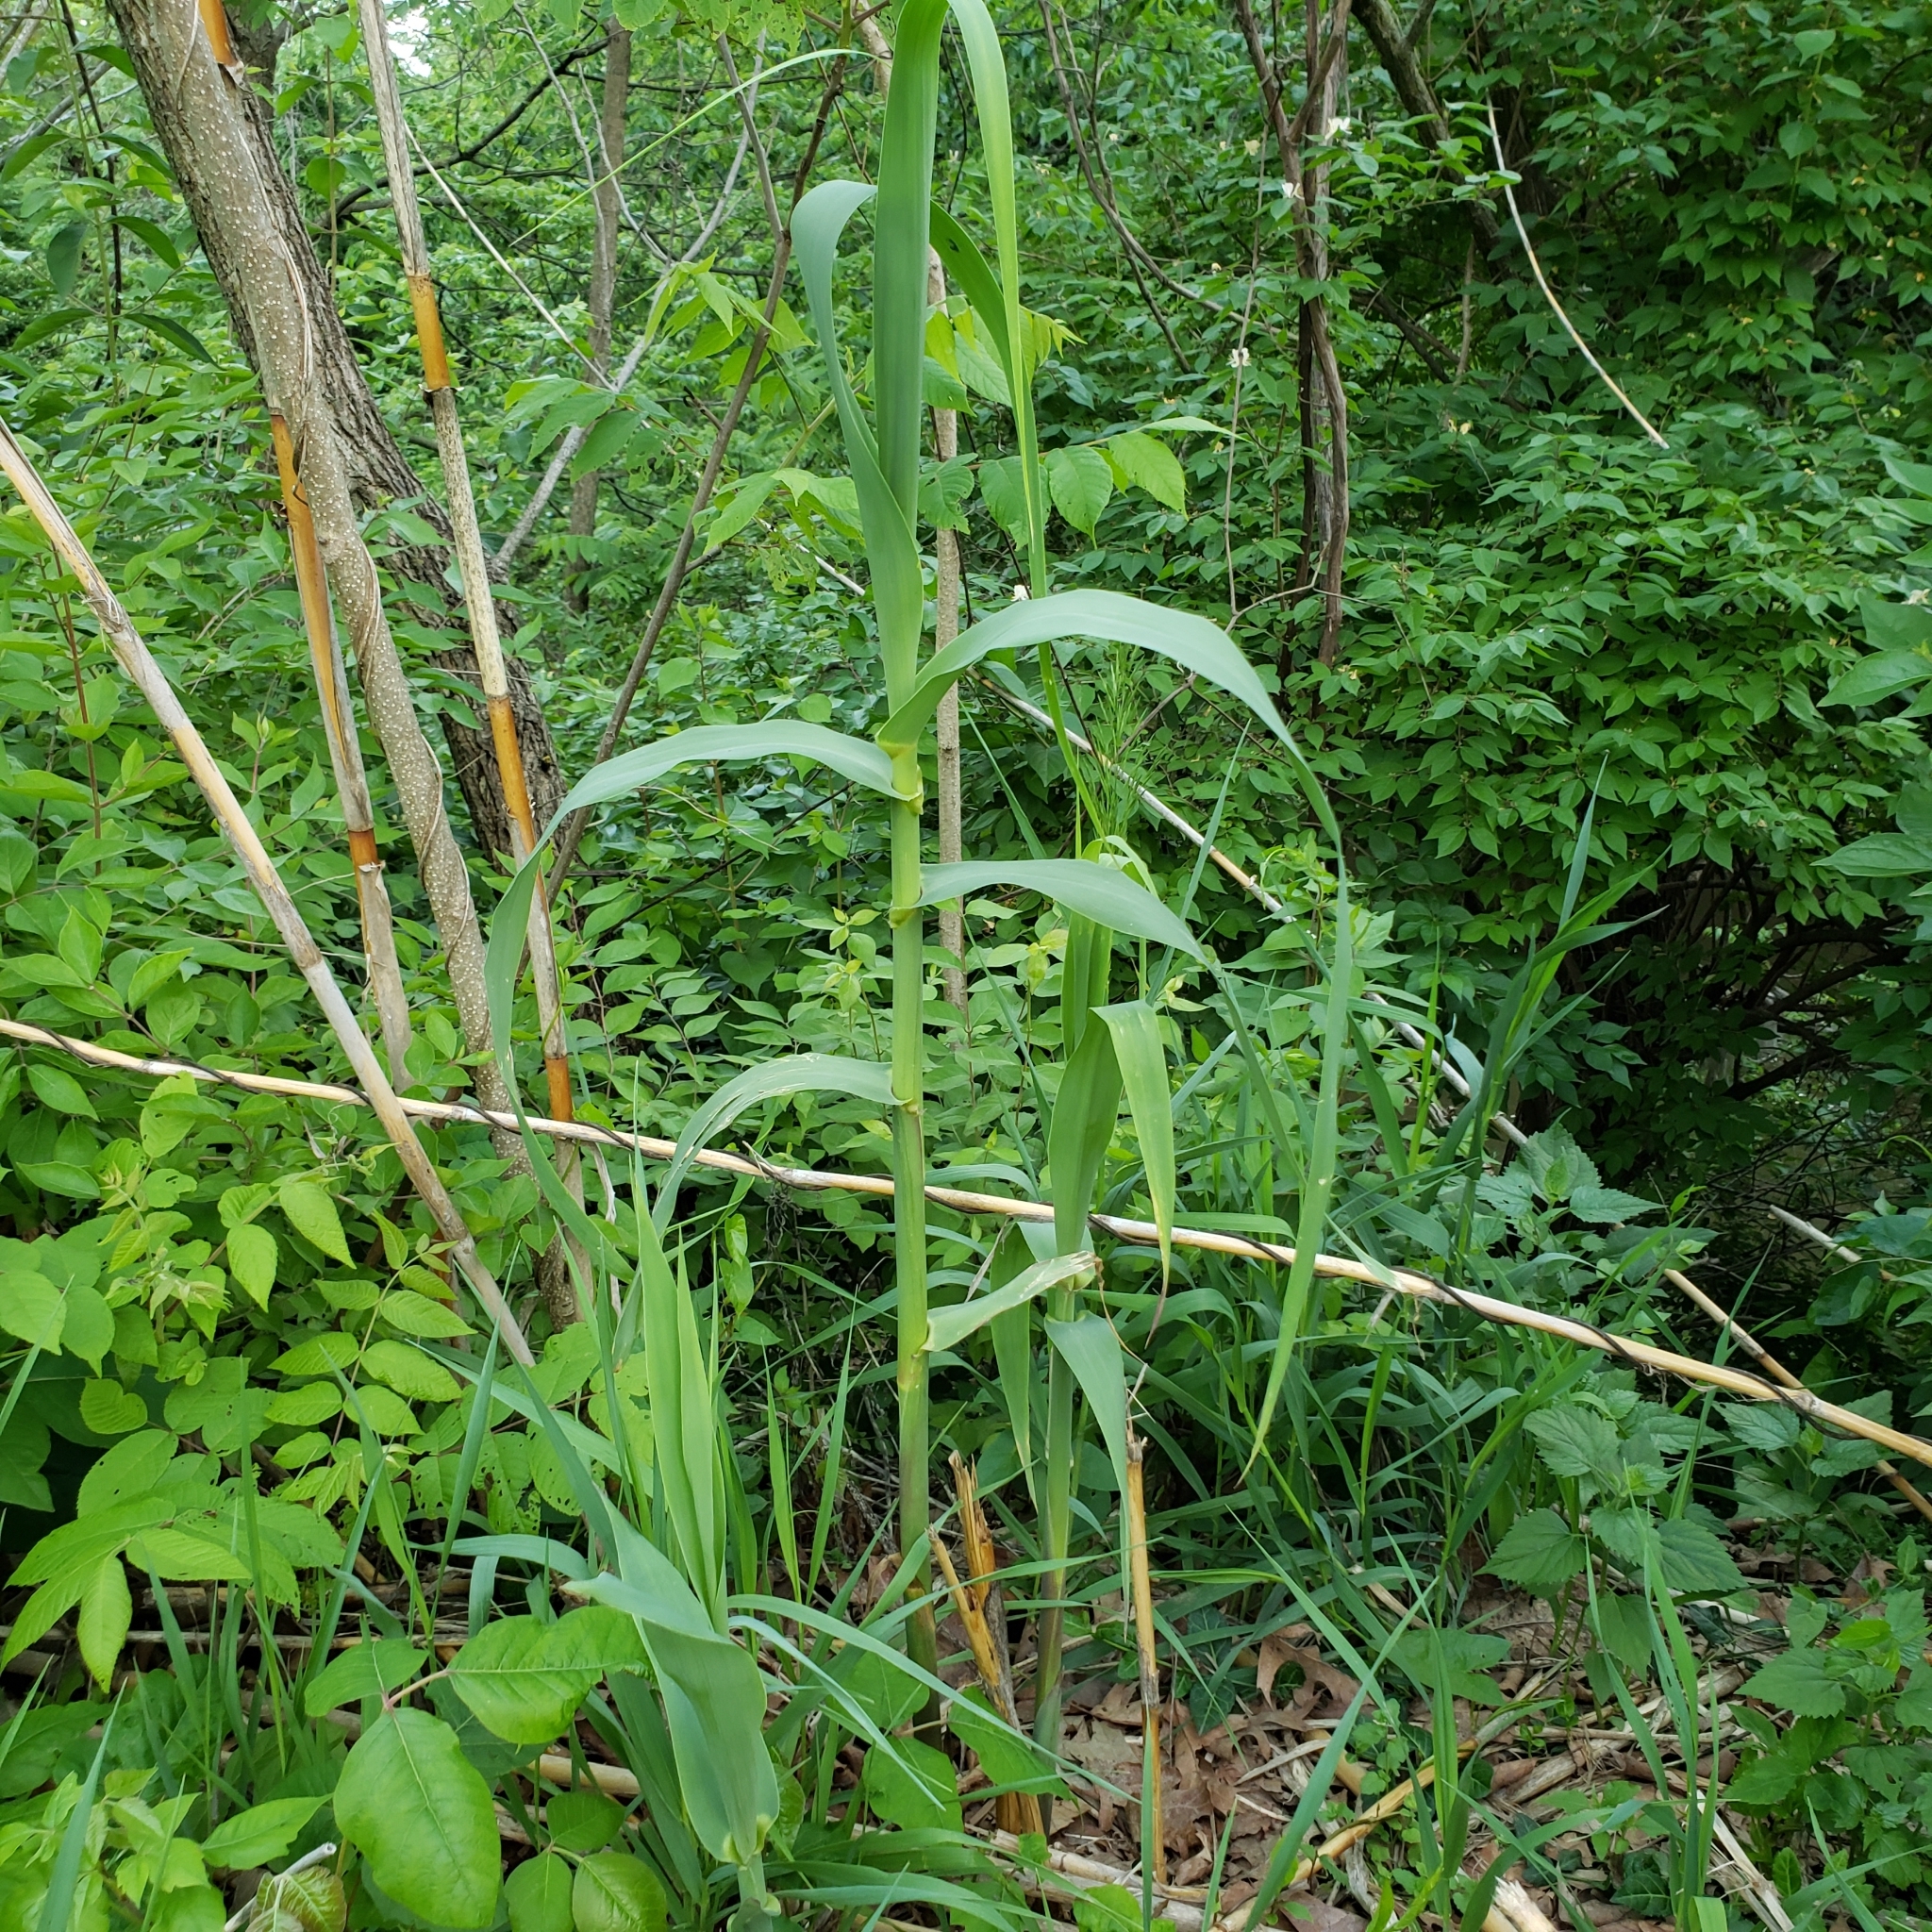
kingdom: Plantae
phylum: Tracheophyta
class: Liliopsida
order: Poales
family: Poaceae
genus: Phragmites
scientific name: Phragmites australis
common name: Common reed
